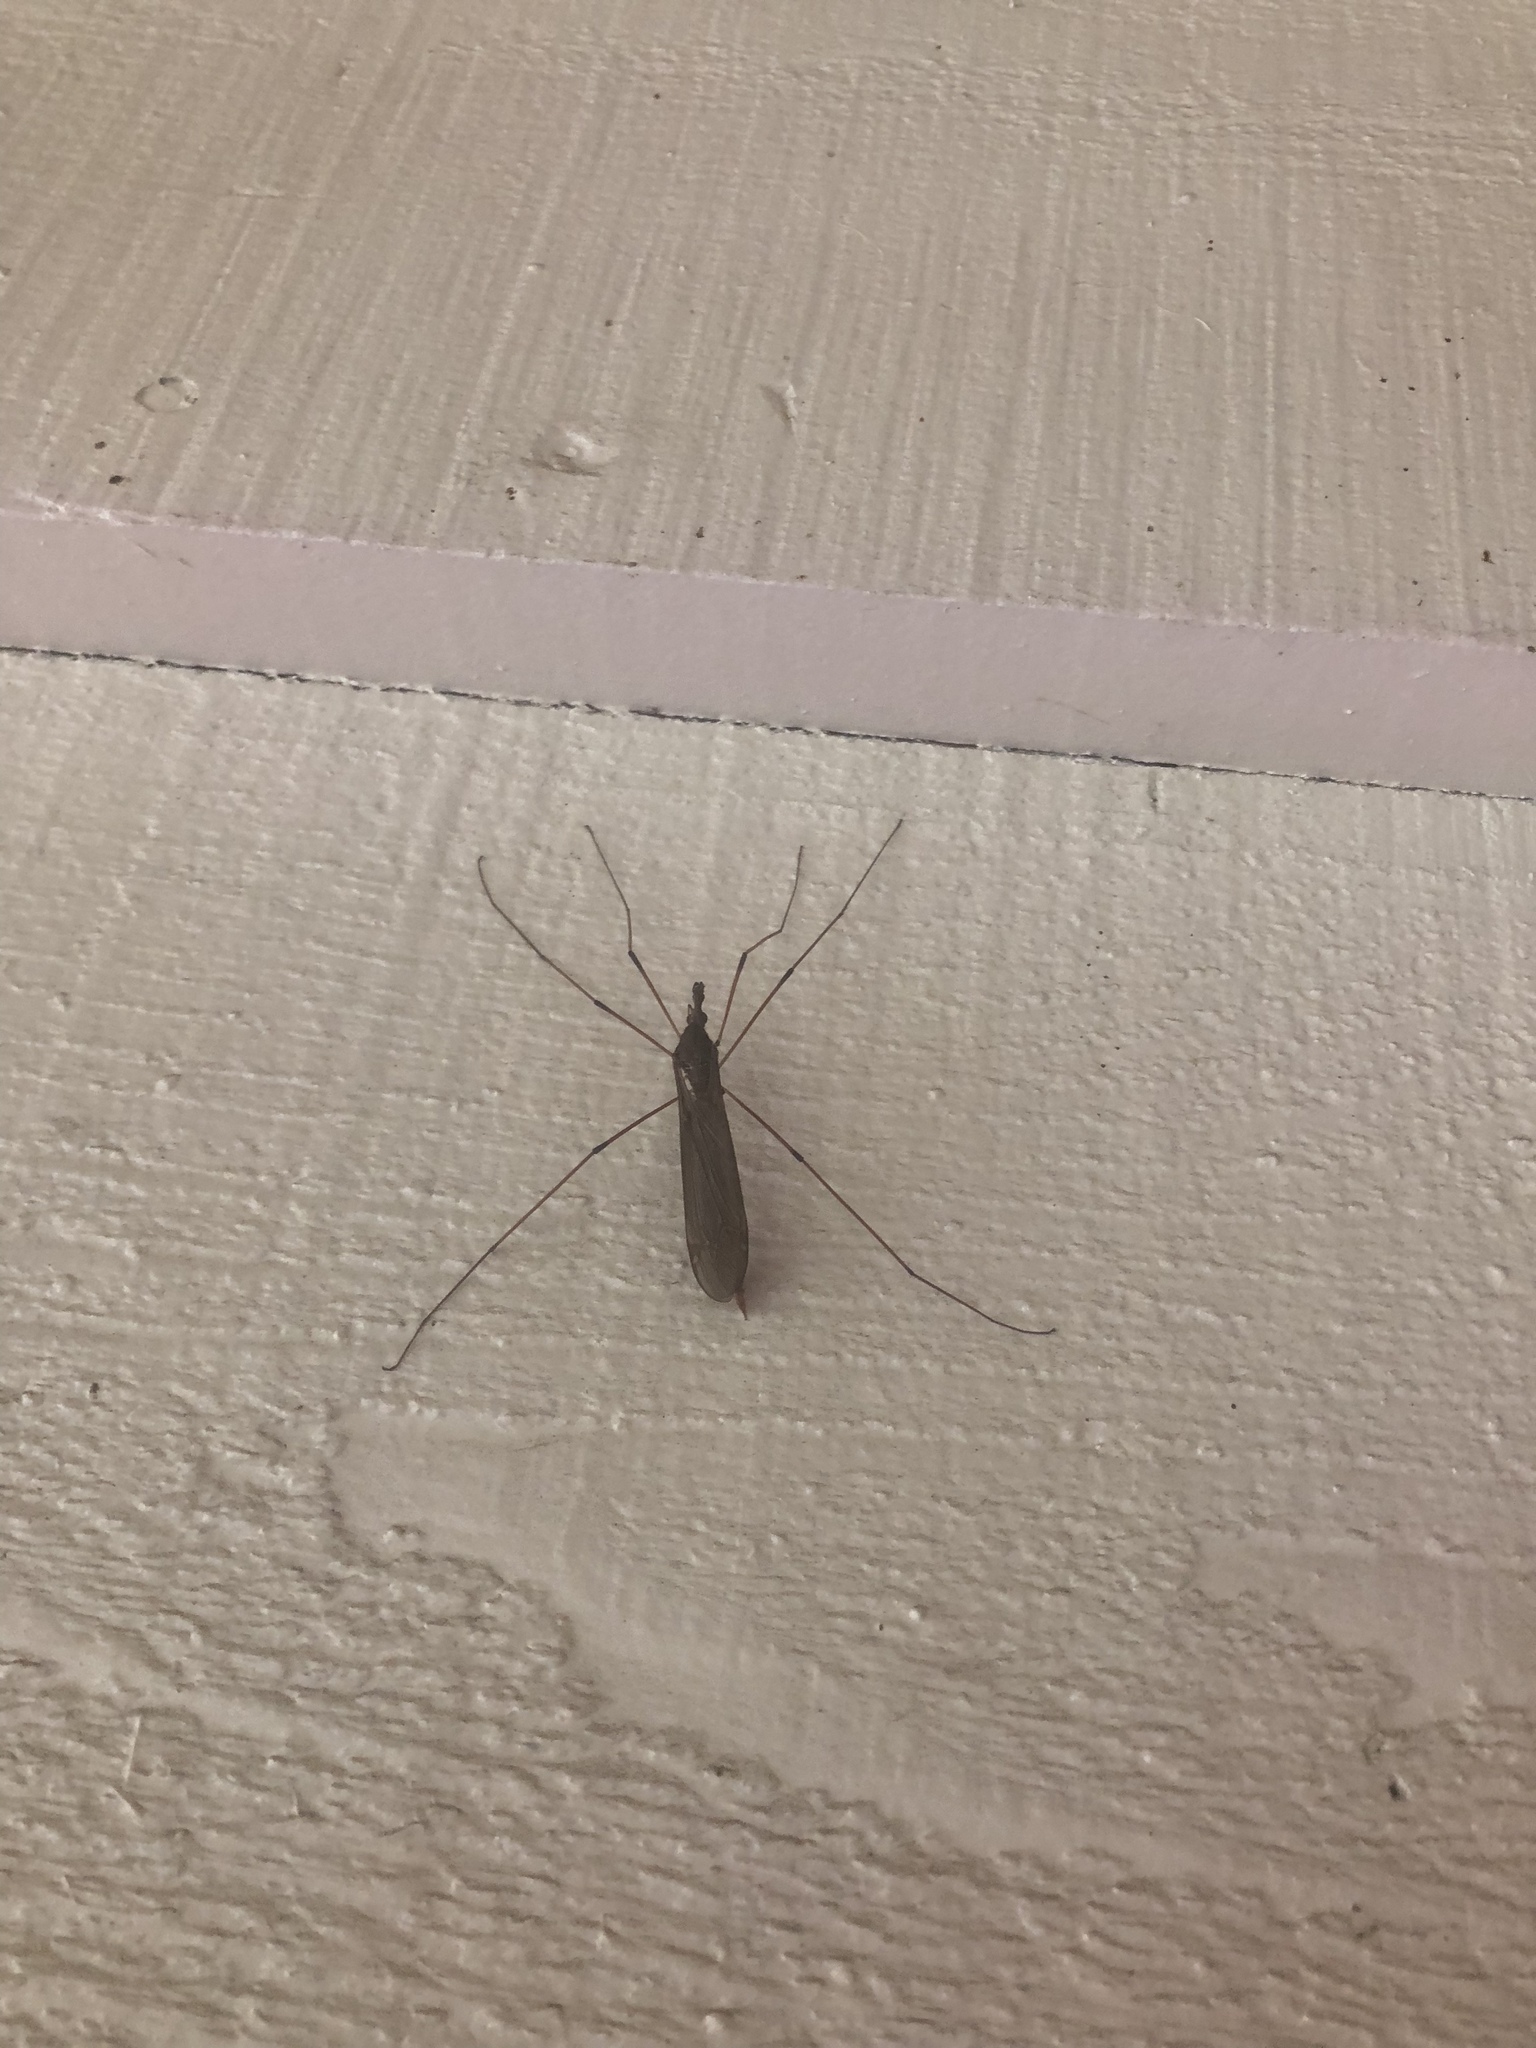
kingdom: Animalia
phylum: Arthropoda
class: Insecta
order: Diptera
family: Tipulidae
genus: Holorusia
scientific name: Holorusia hespera
